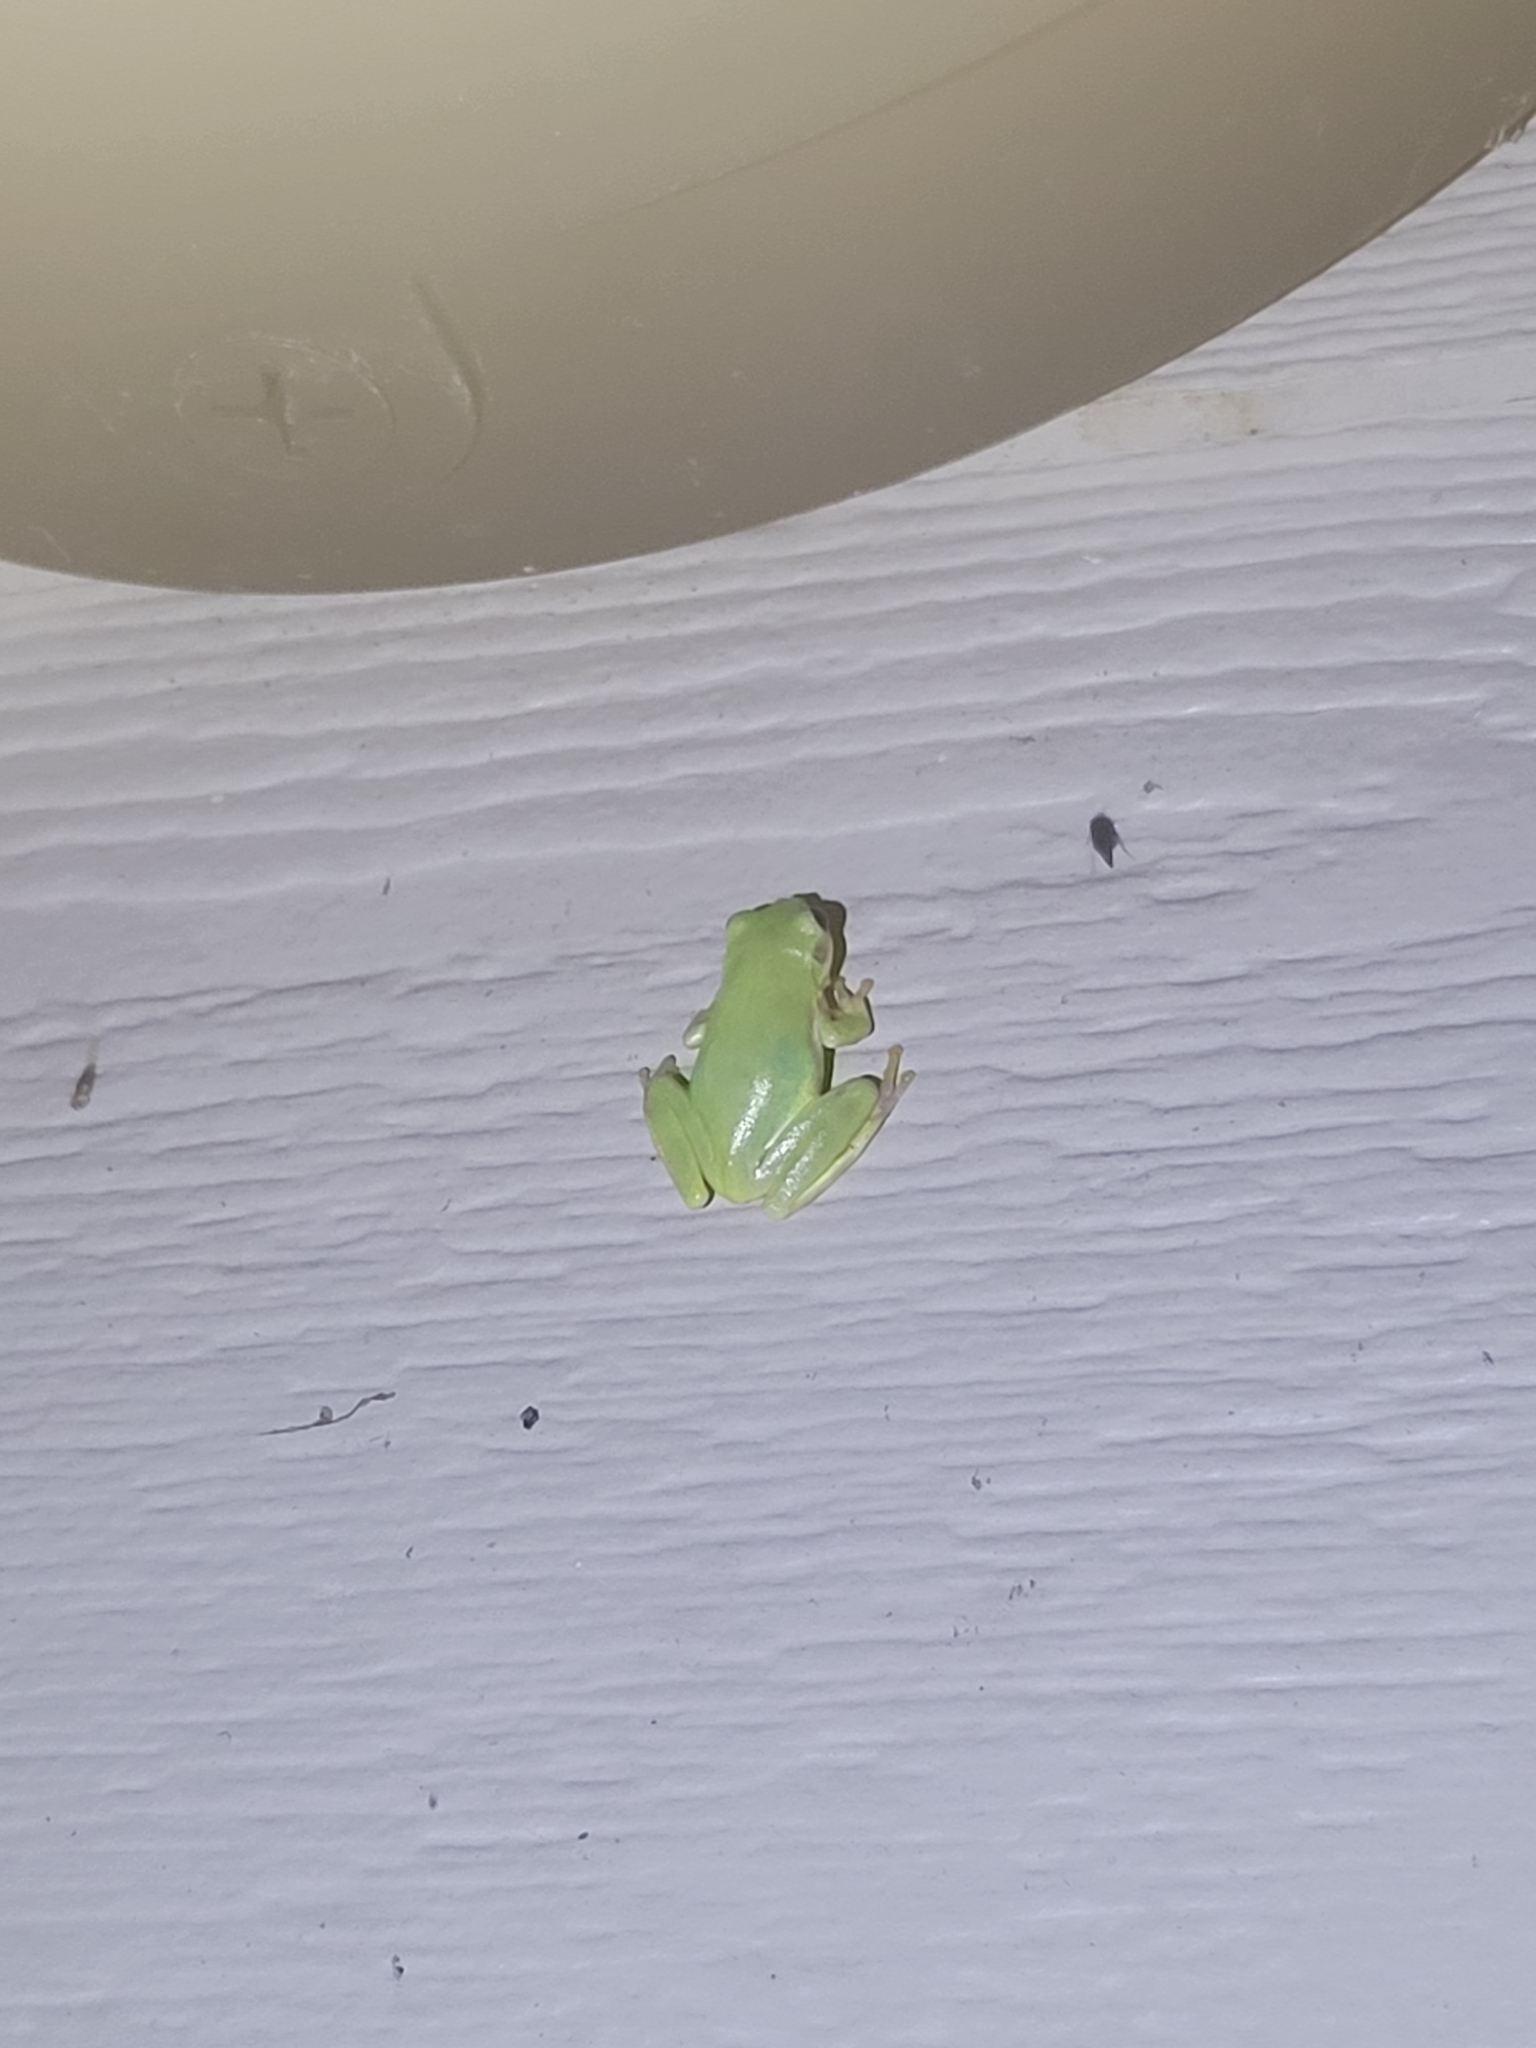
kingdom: Animalia
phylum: Chordata
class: Amphibia
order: Anura
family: Hylidae
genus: Dryophytes
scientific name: Dryophytes squirellus
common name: Squirrel treefrog
